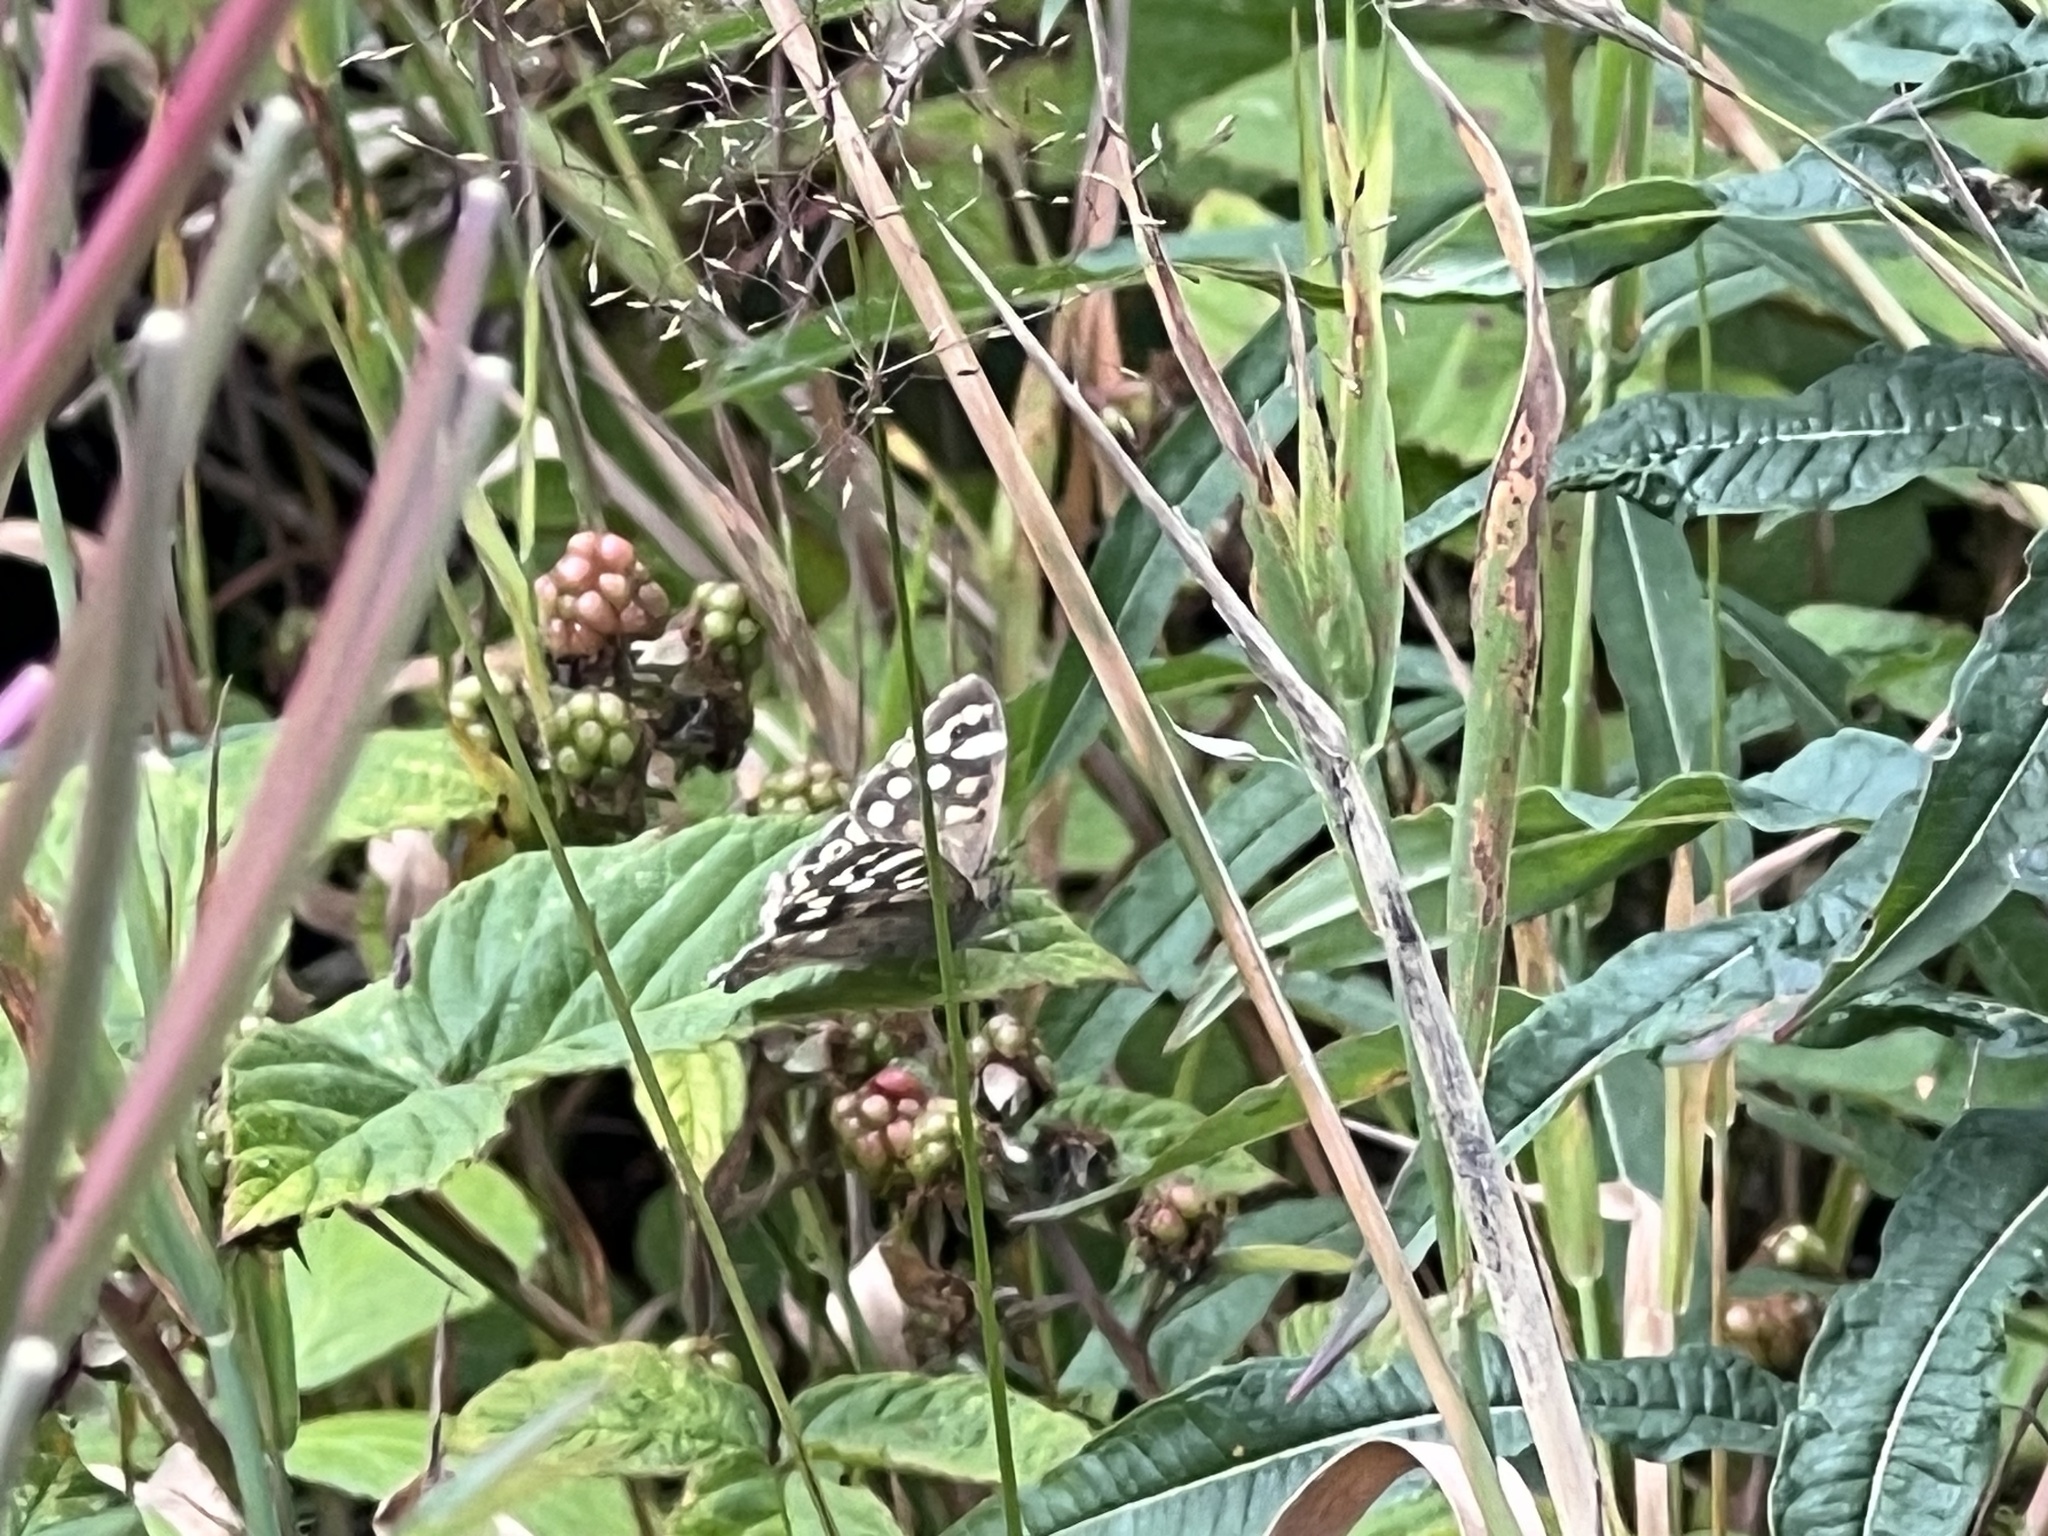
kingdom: Animalia
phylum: Arthropoda
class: Insecta
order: Lepidoptera
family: Nymphalidae
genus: Pararge
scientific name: Pararge aegeria
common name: Speckled wood
